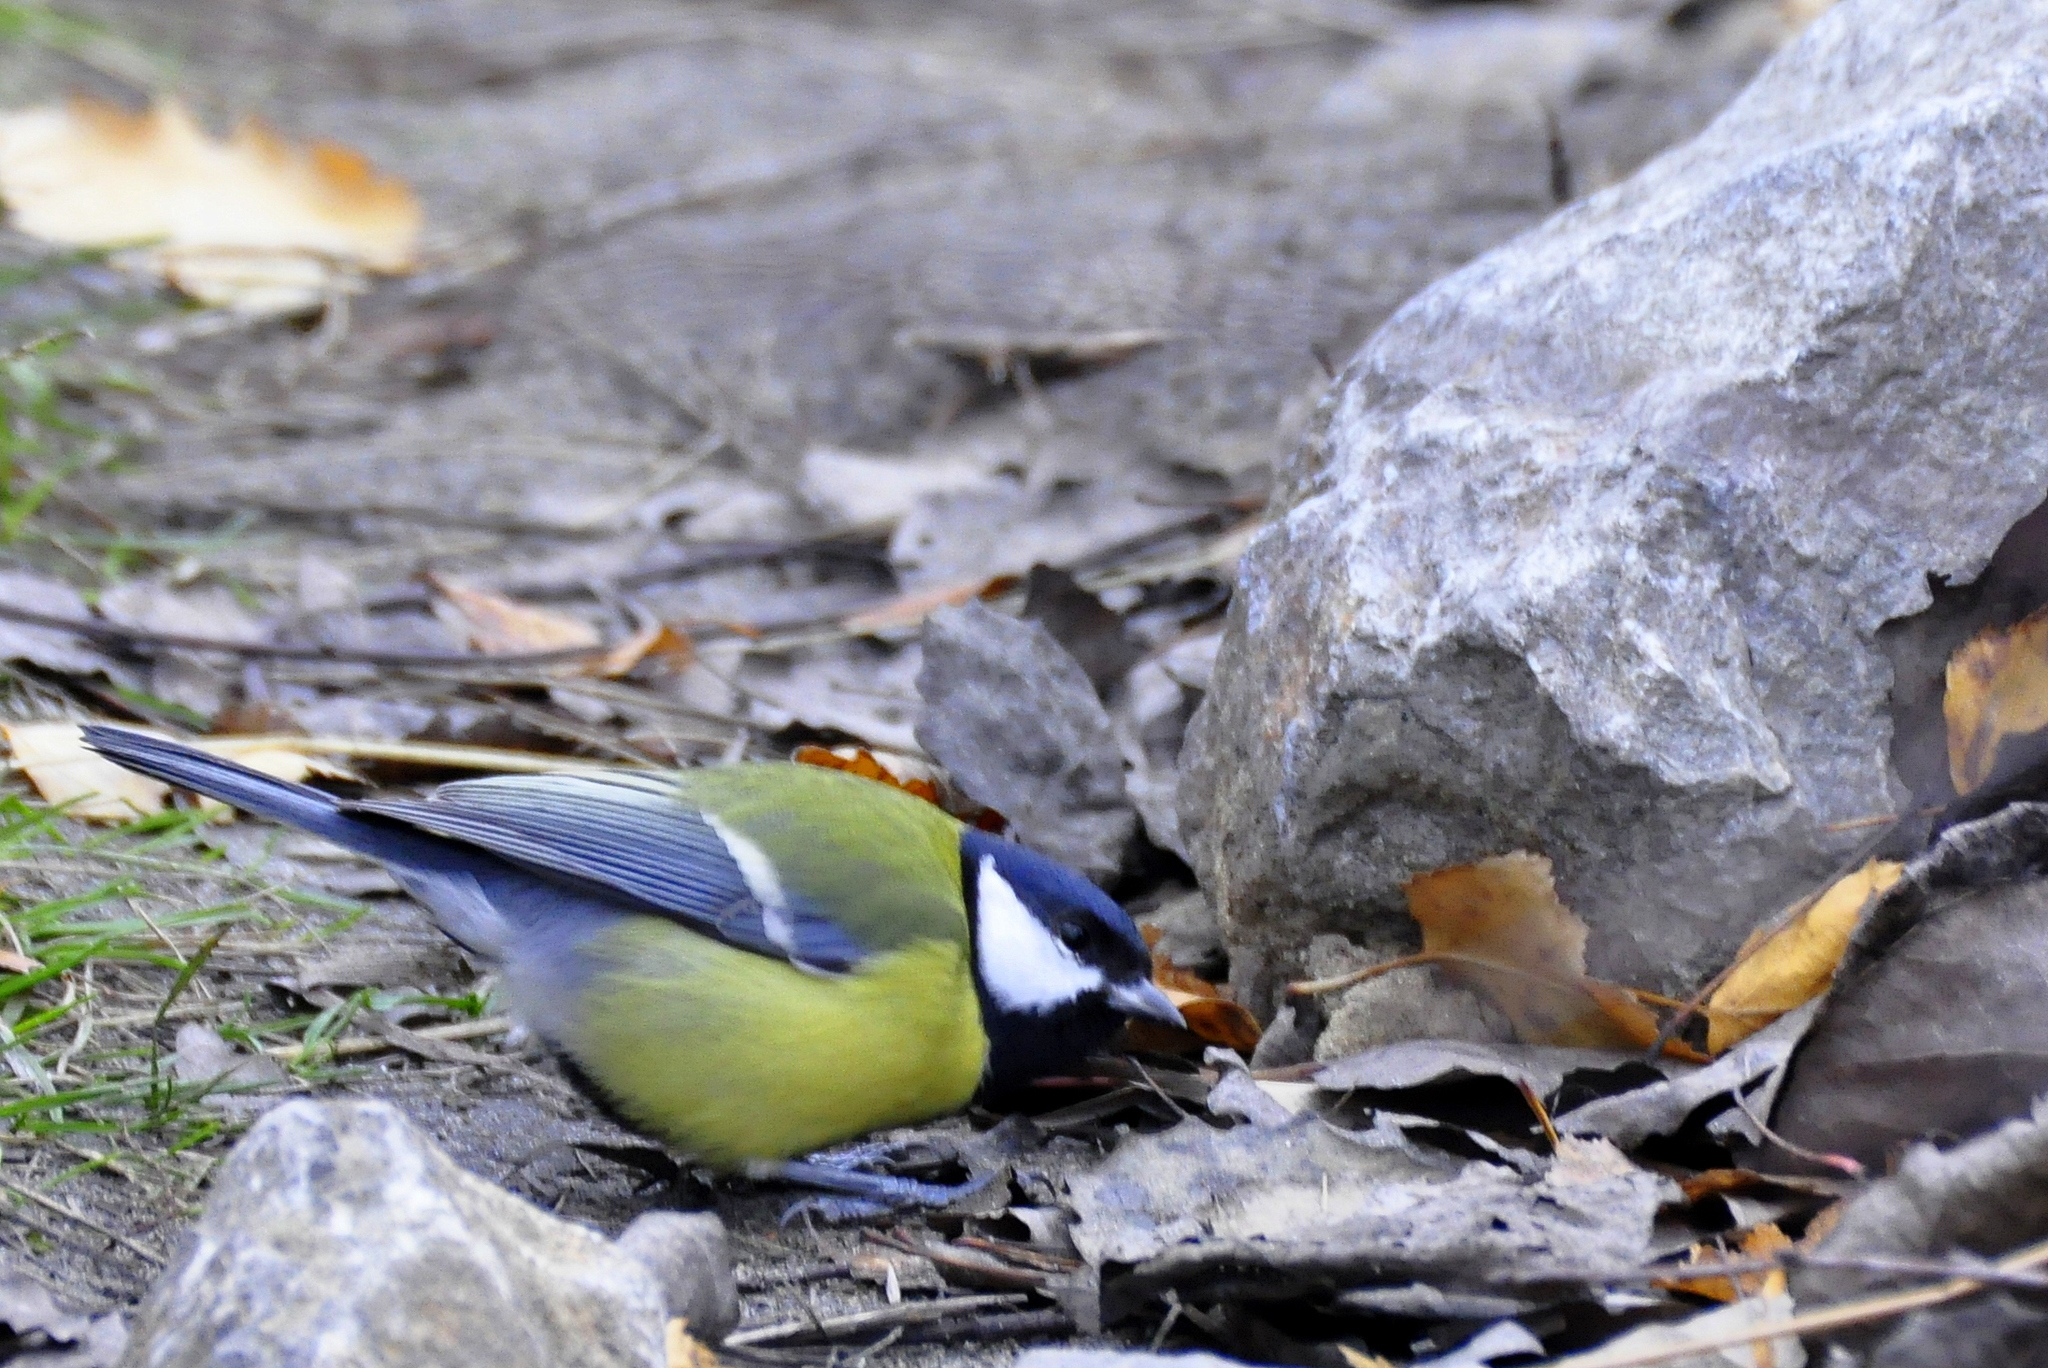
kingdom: Animalia
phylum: Chordata
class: Aves
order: Passeriformes
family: Paridae
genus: Parus
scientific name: Parus major
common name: Great tit
